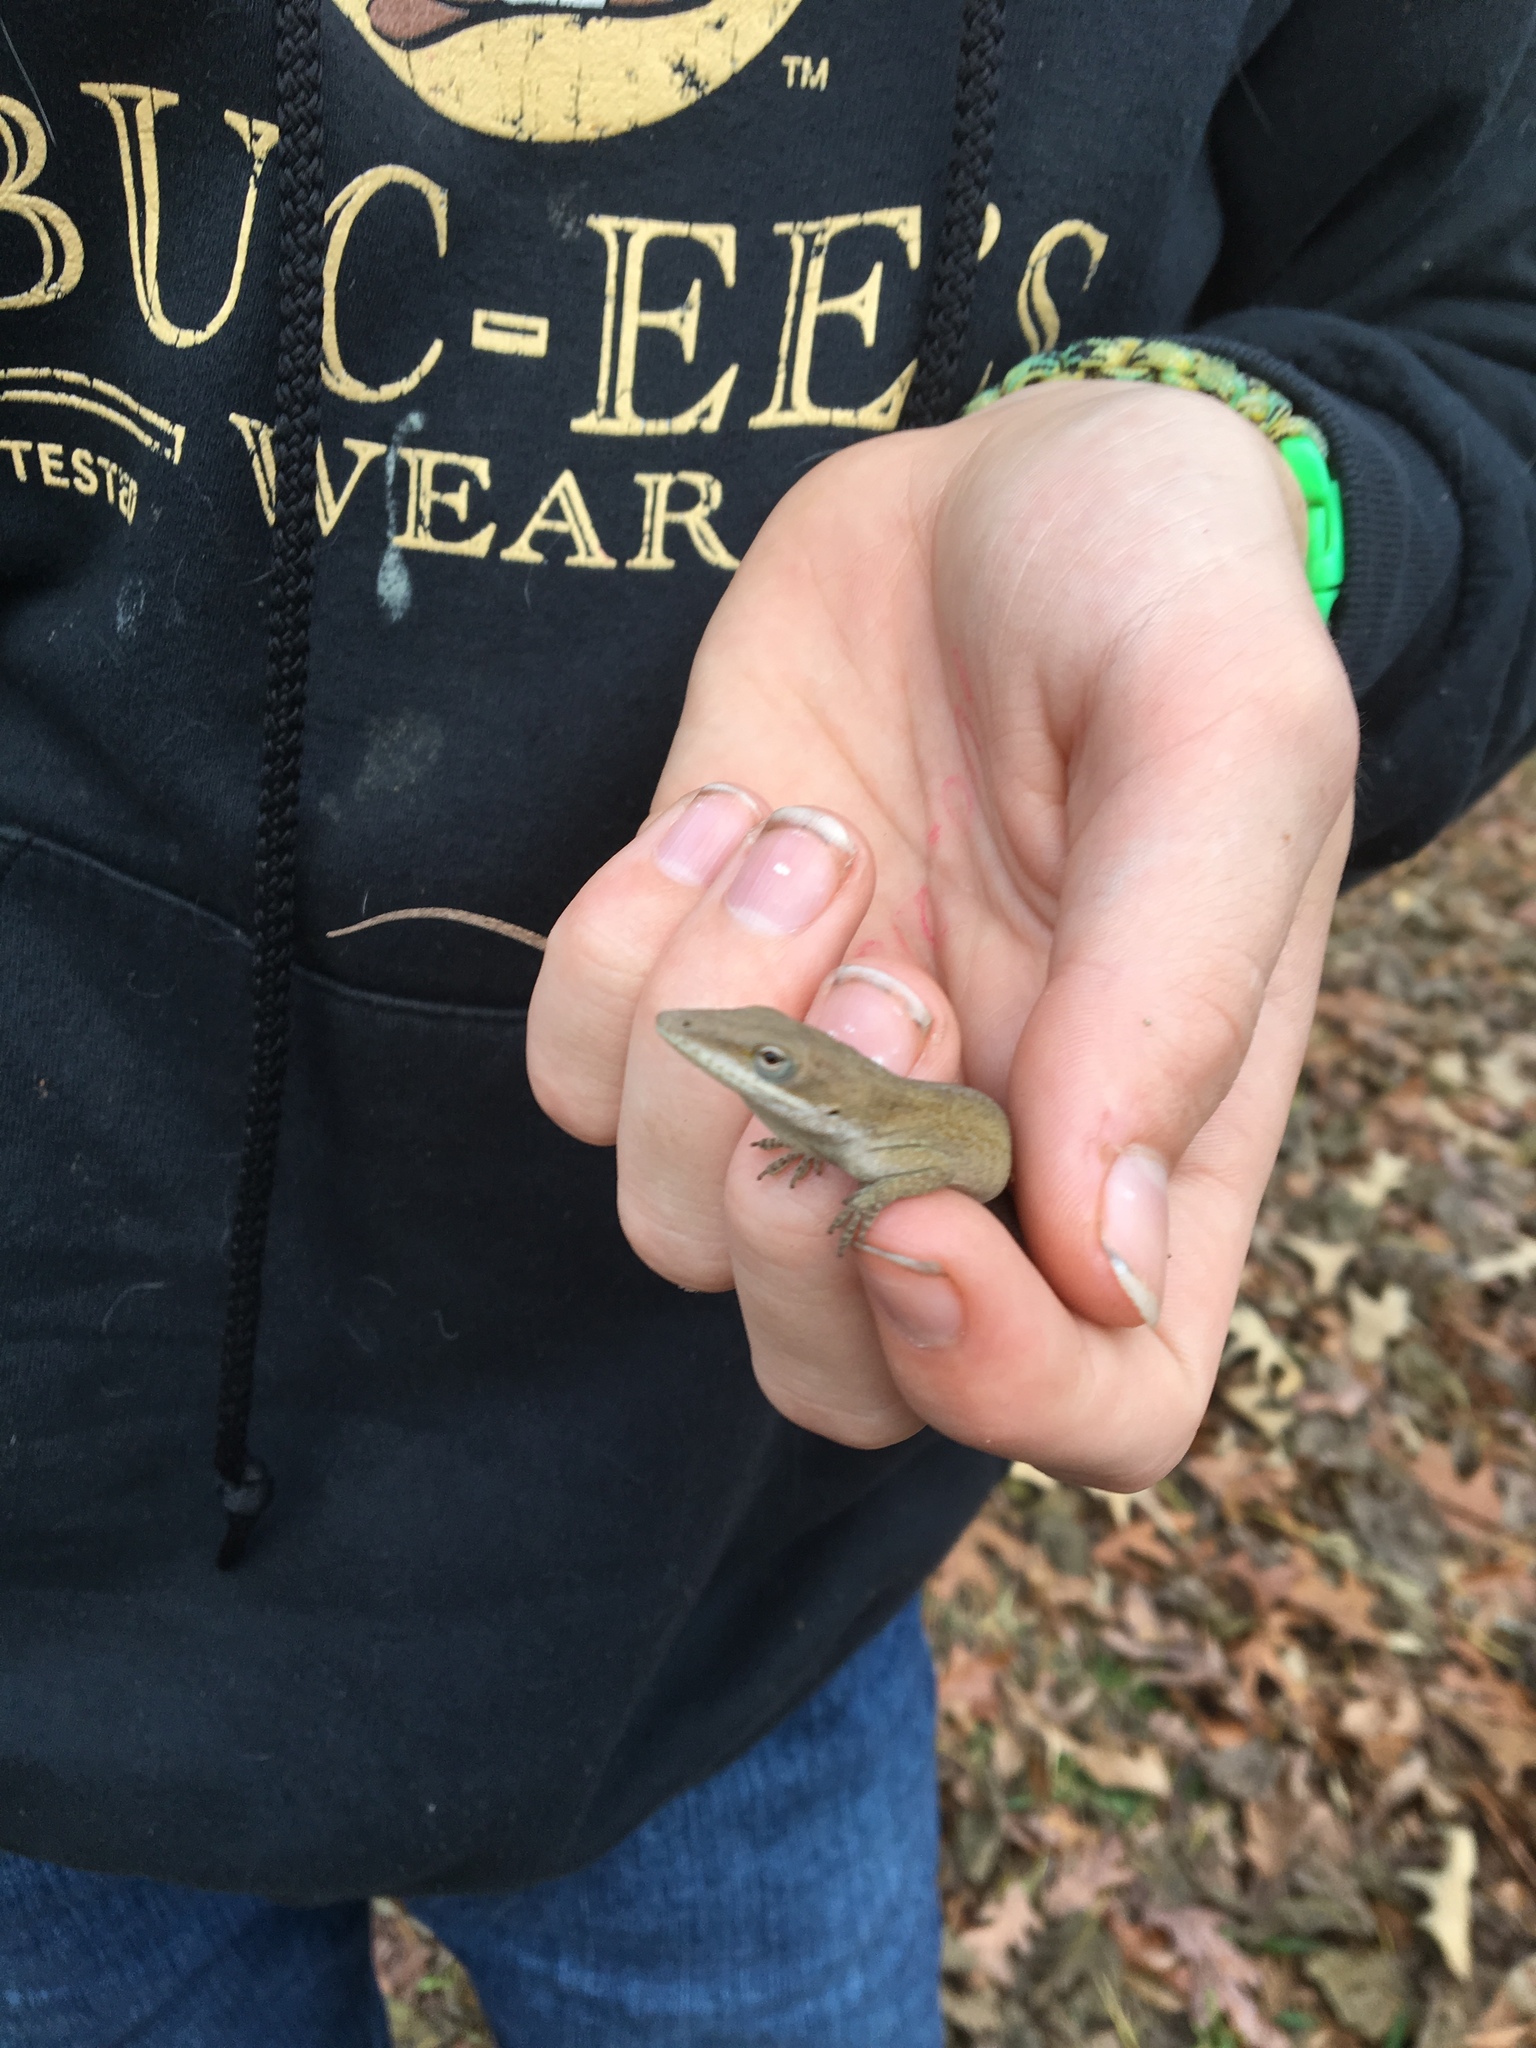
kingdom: Animalia
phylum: Chordata
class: Squamata
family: Dactyloidae
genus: Anolis
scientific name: Anolis carolinensis
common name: Green anole
